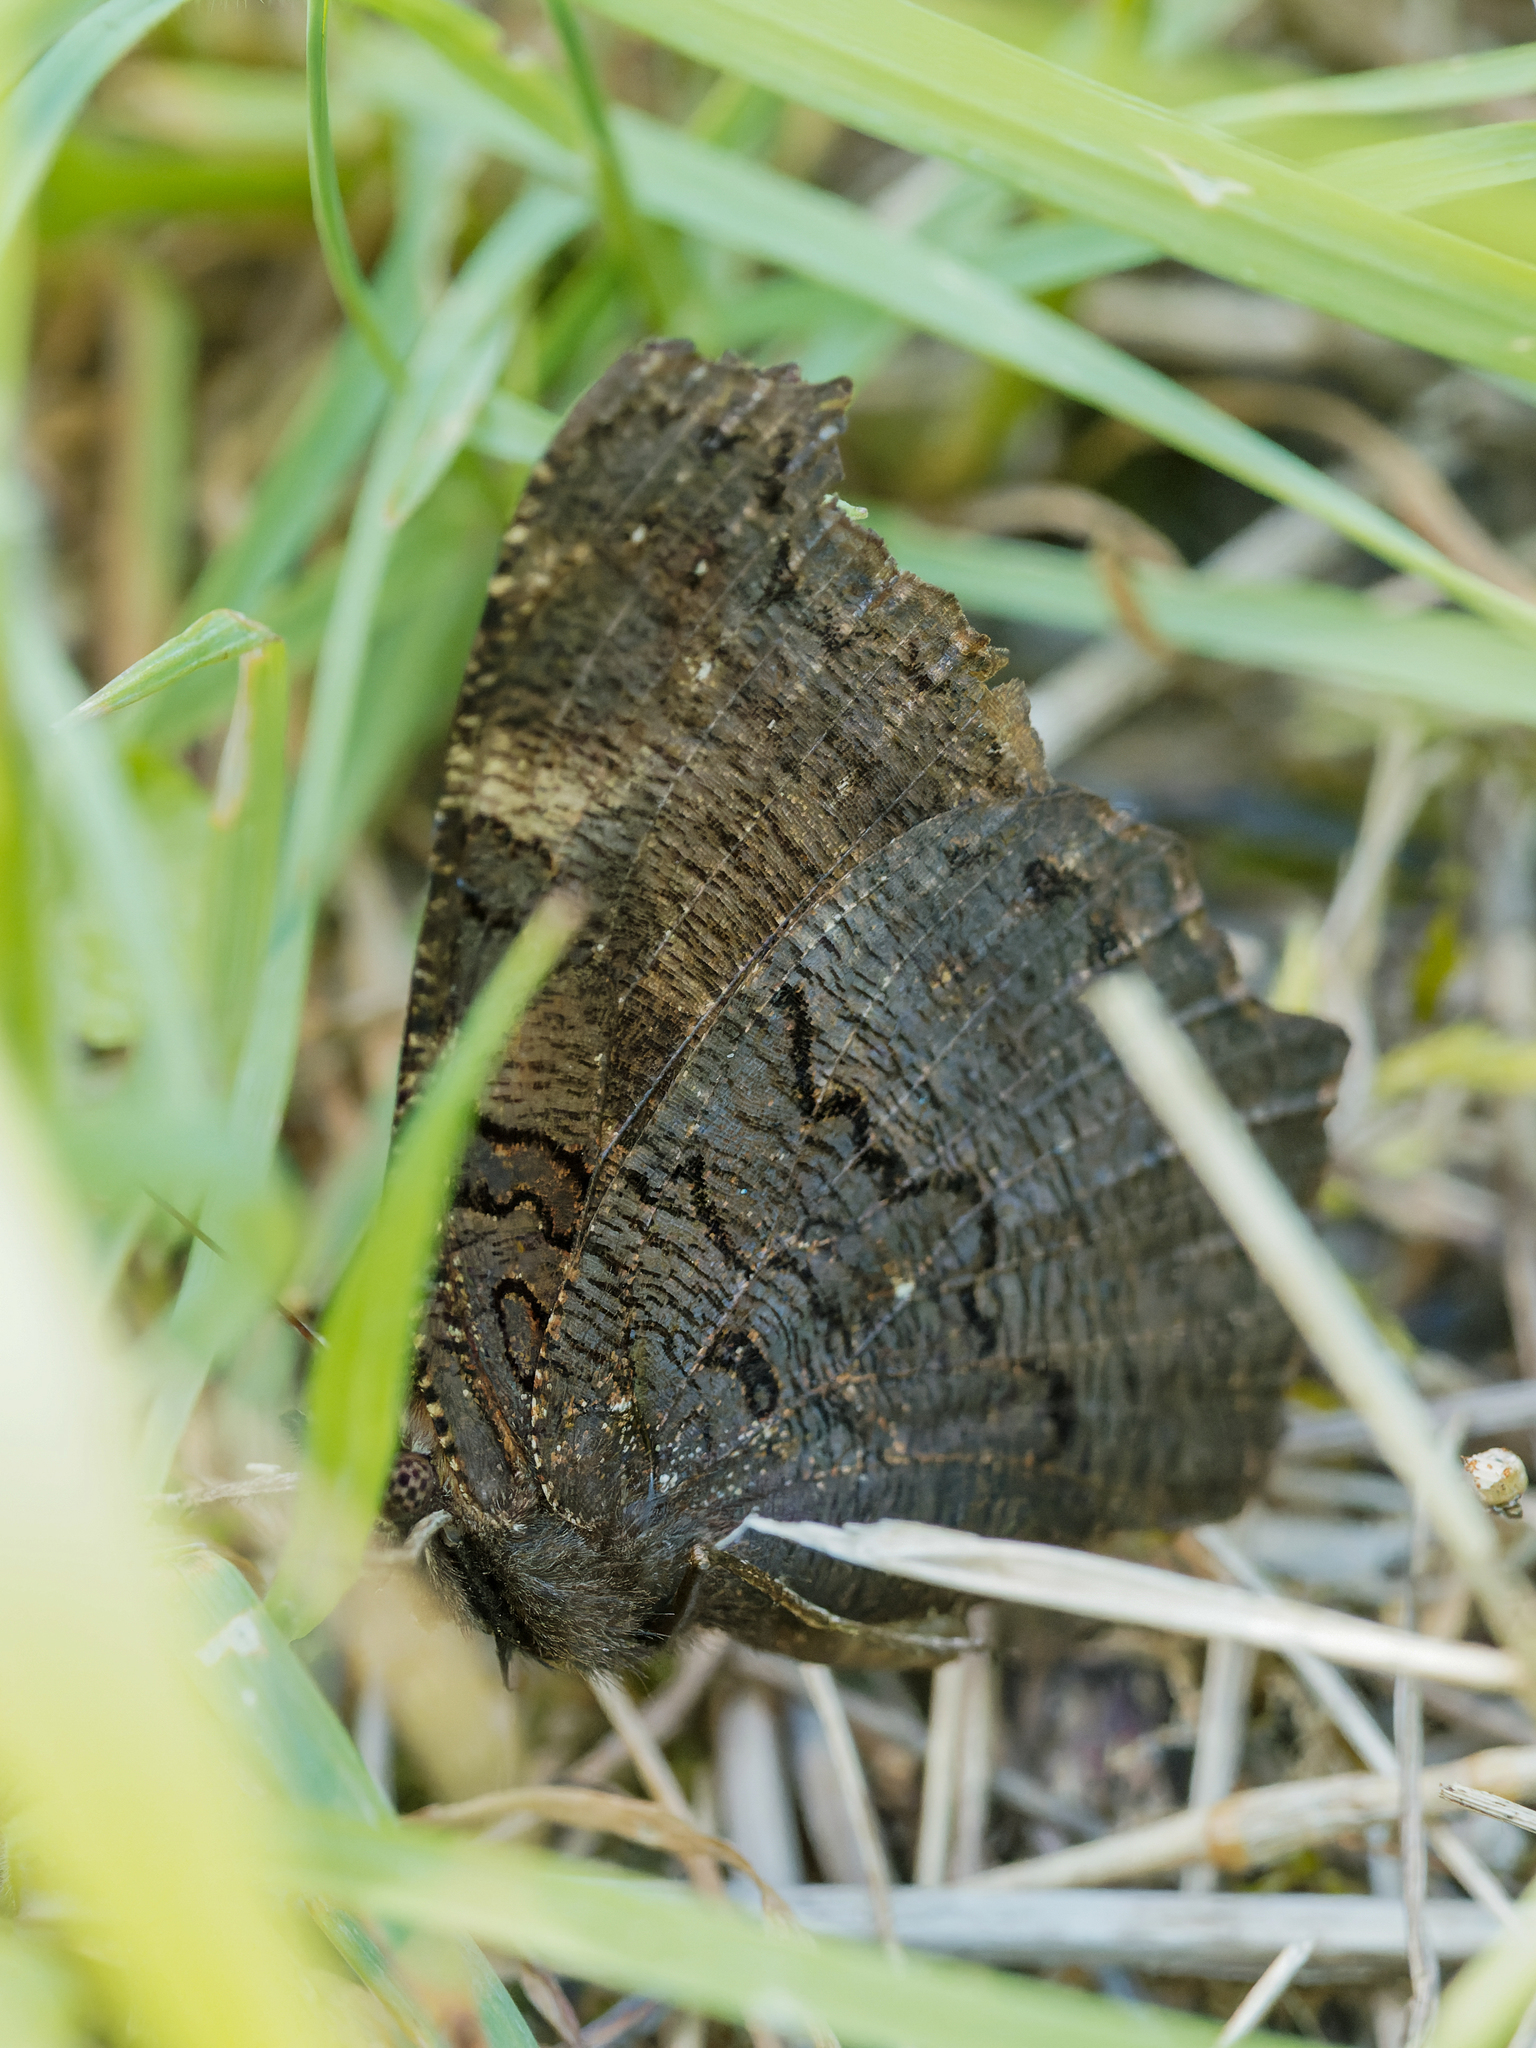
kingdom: Animalia
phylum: Arthropoda
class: Insecta
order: Lepidoptera
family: Nymphalidae
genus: Aglais
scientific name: Aglais io
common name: Peacock
